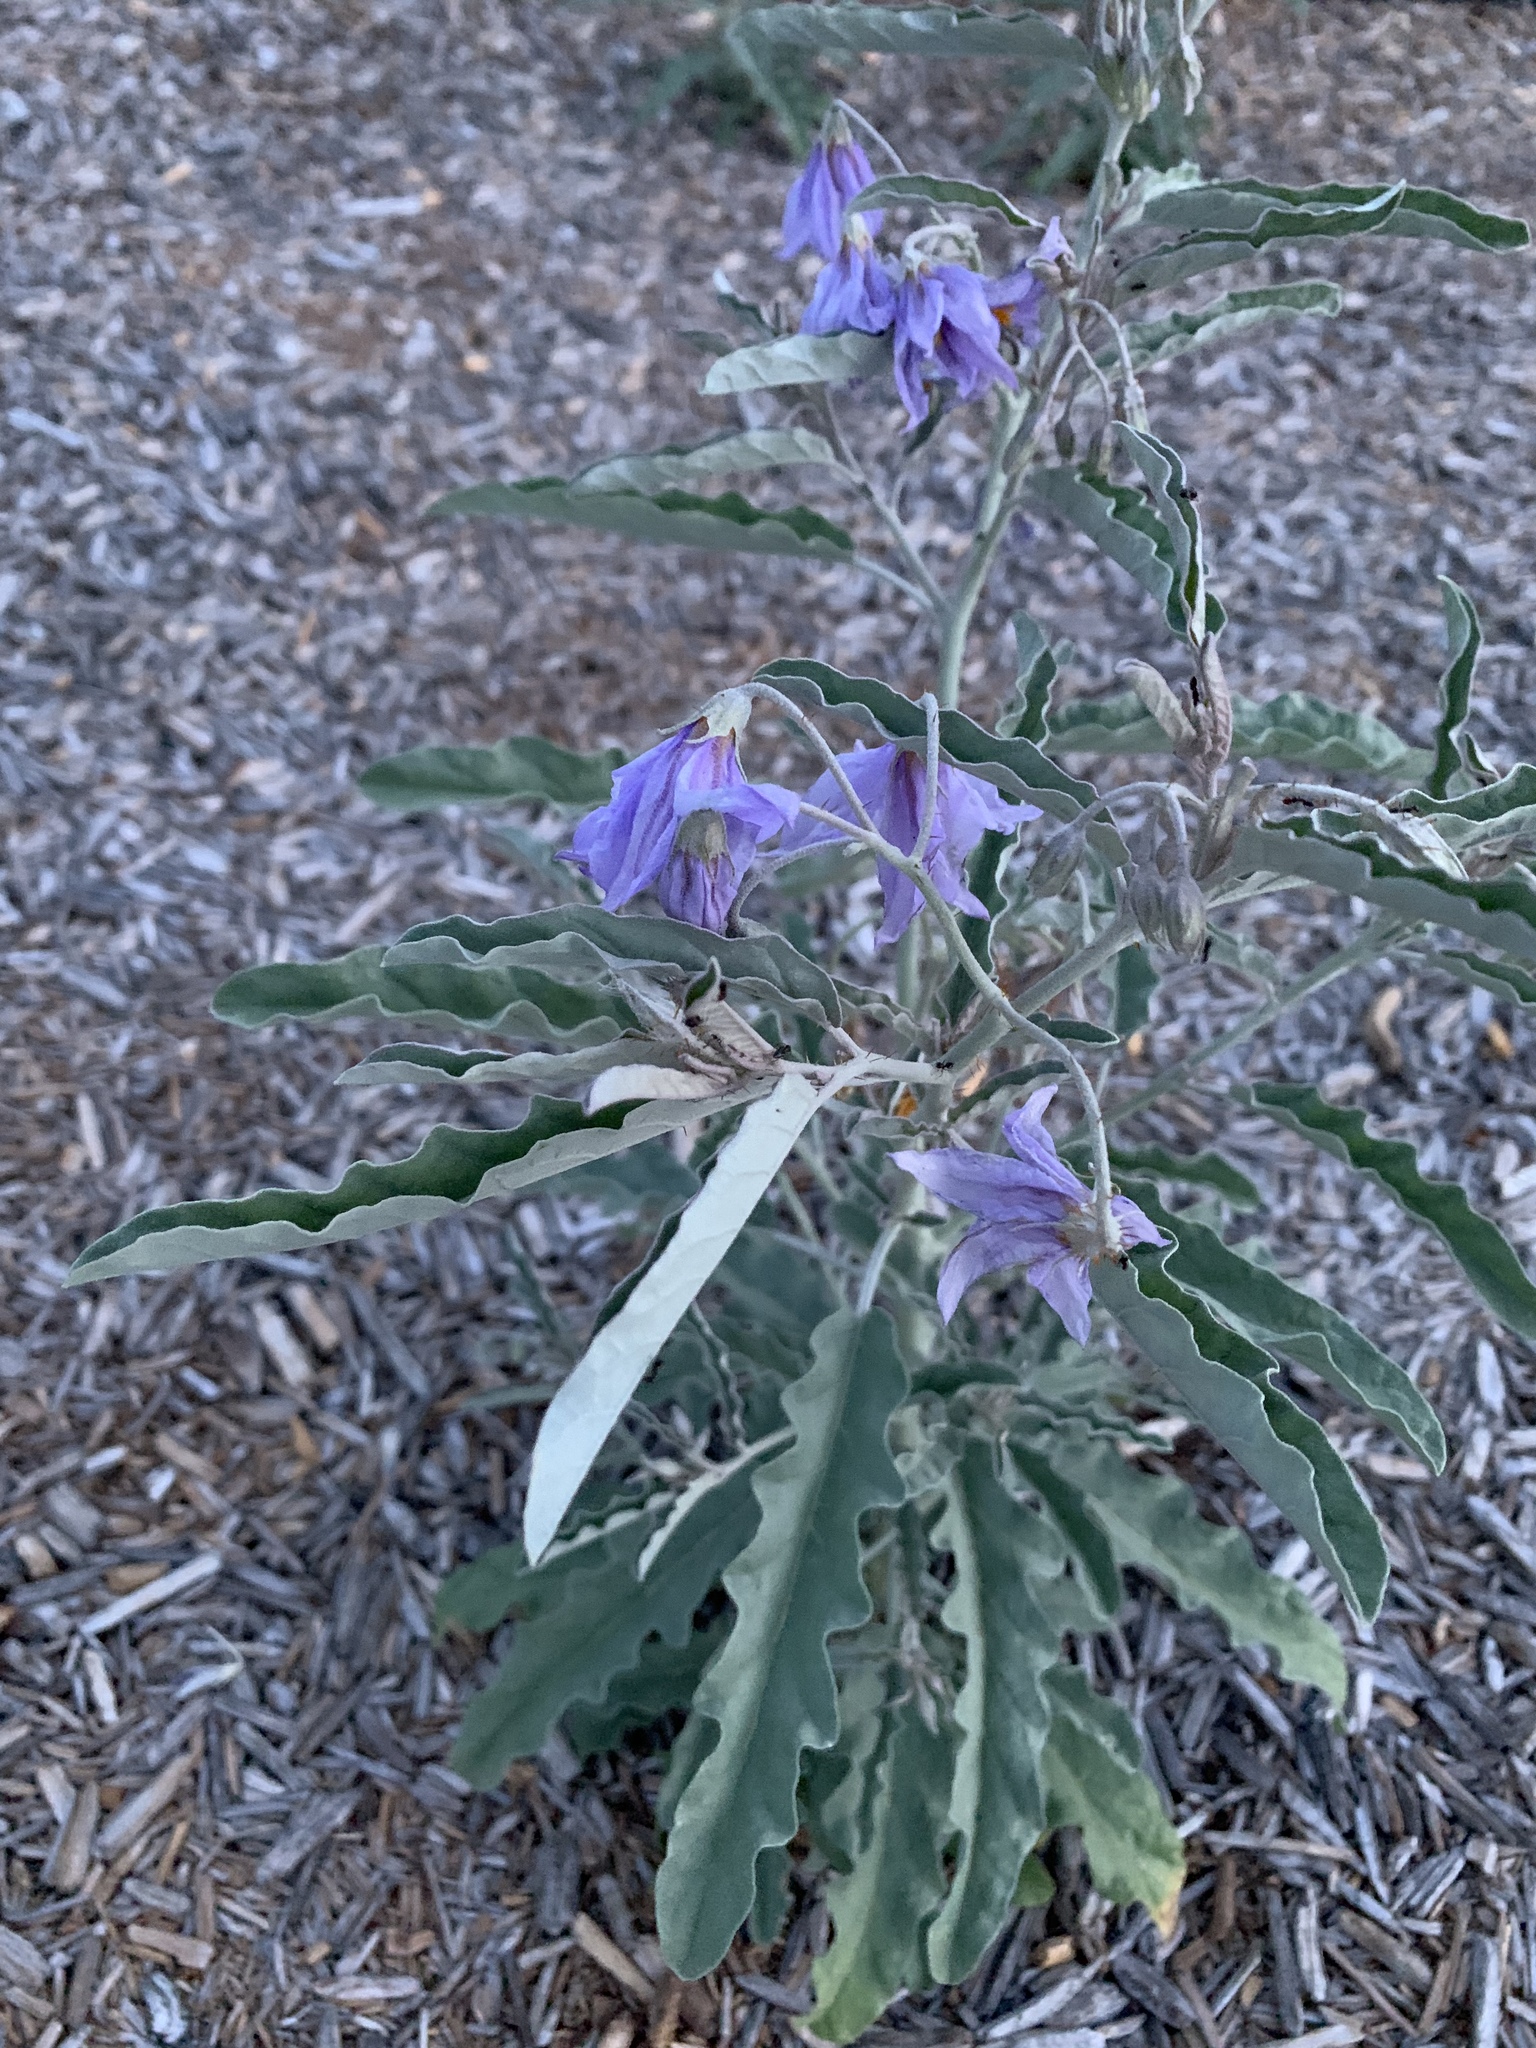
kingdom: Plantae
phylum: Tracheophyta
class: Magnoliopsida
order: Solanales
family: Solanaceae
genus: Solanum
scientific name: Solanum elaeagnifolium
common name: Silverleaf nightshade
